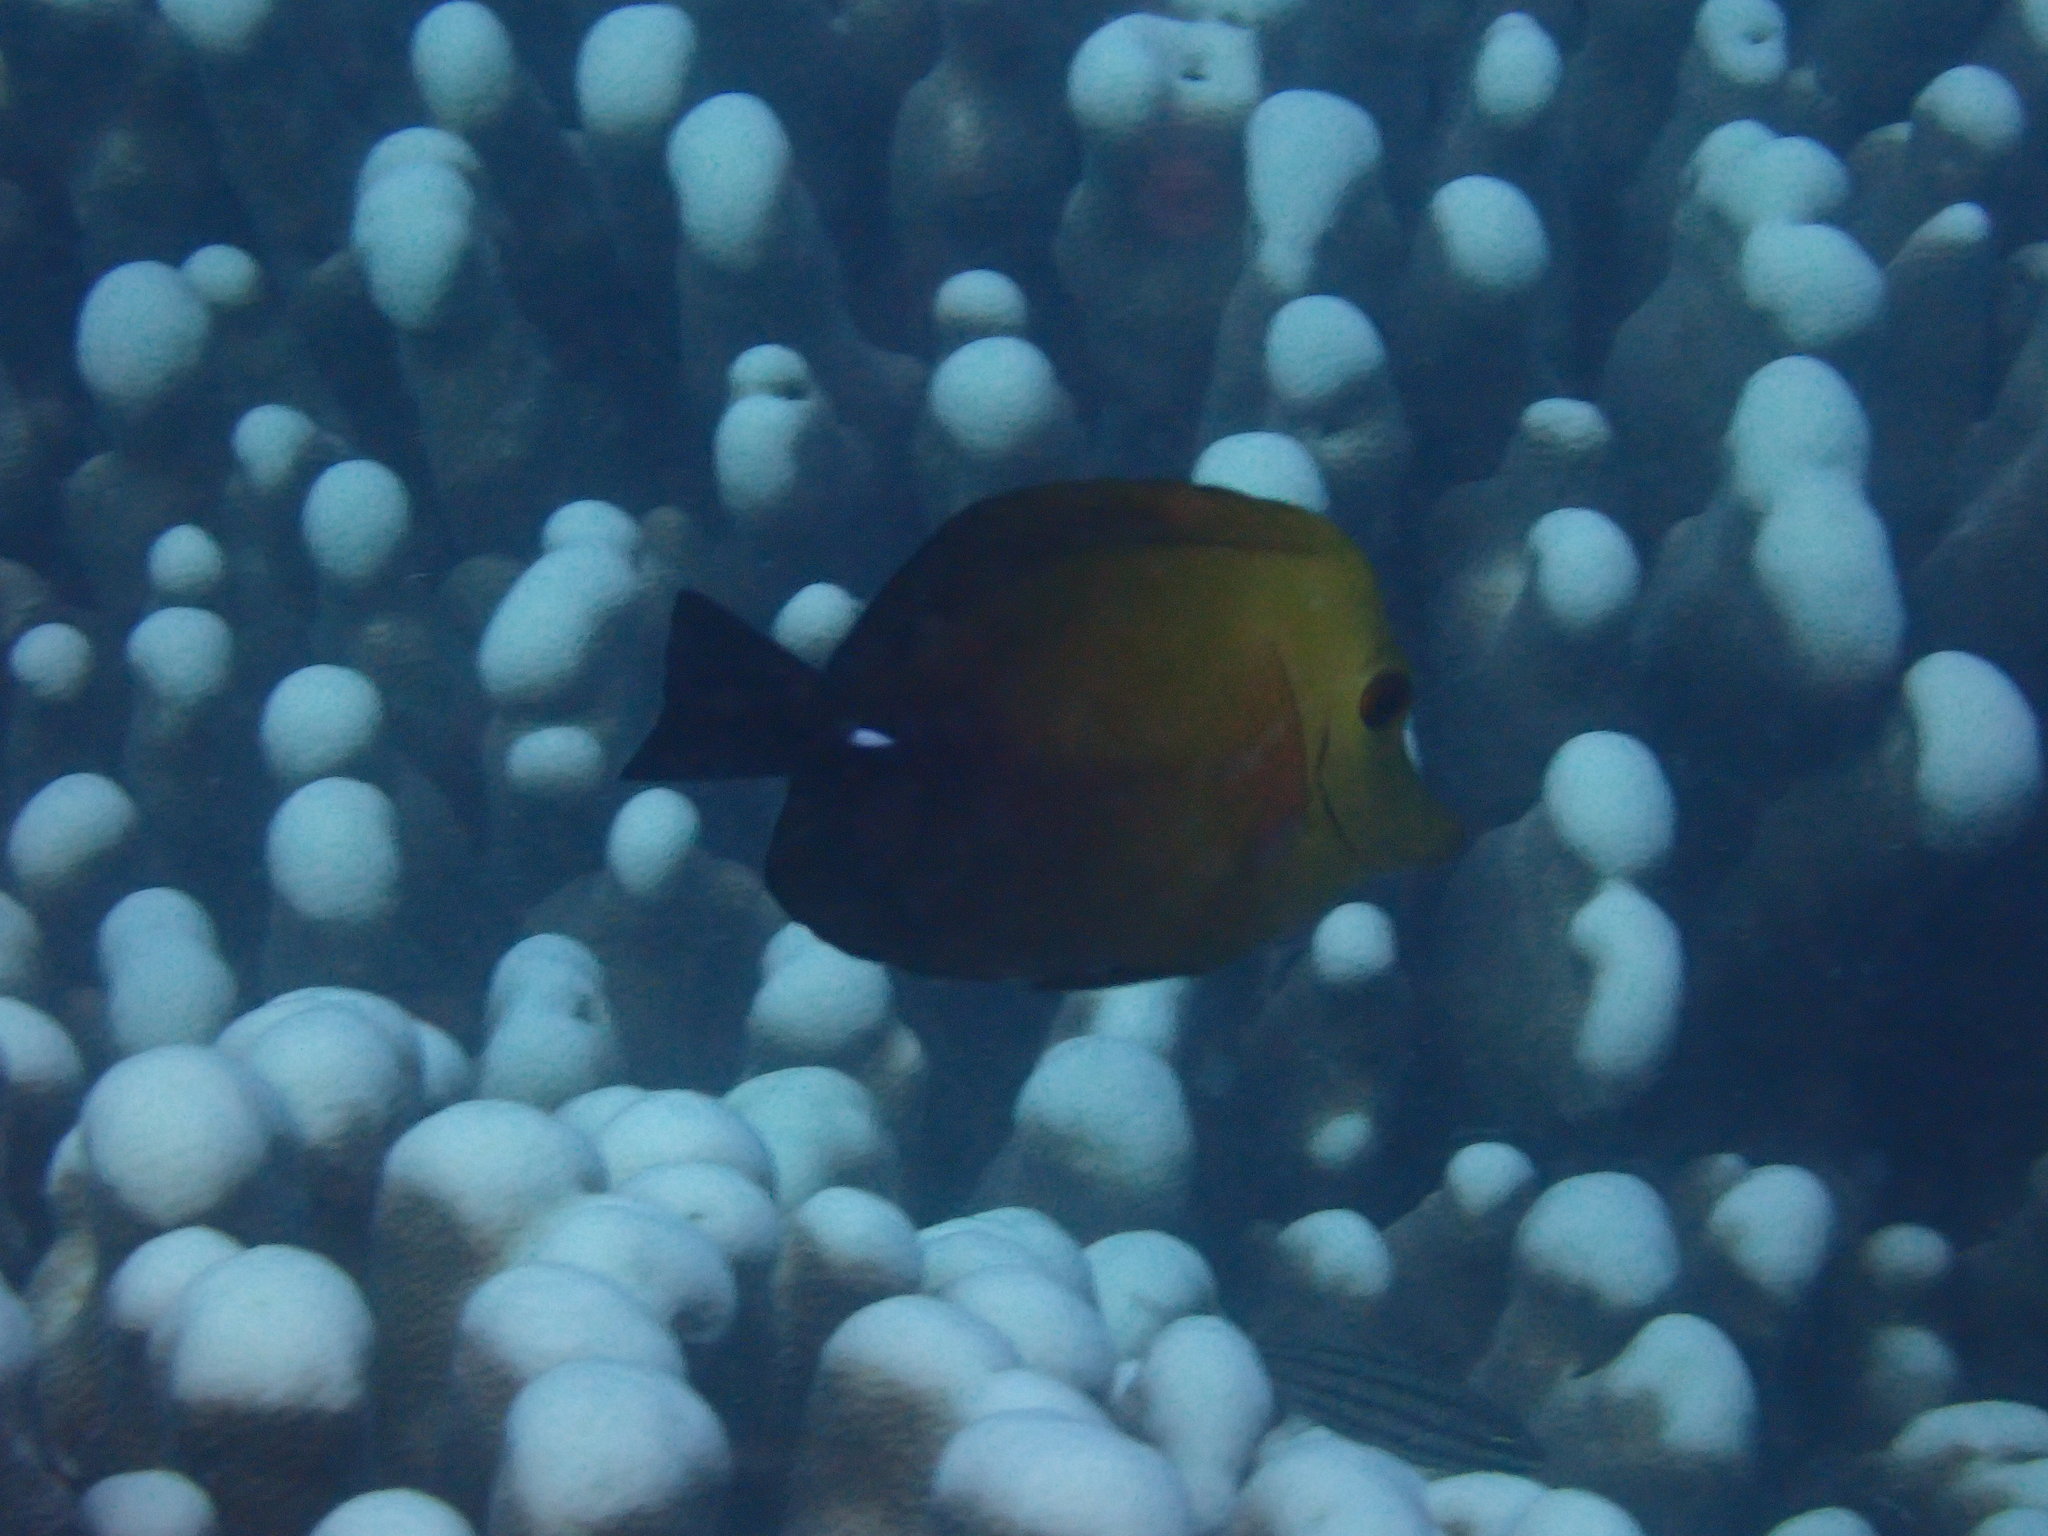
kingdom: Animalia
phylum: Chordata
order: Perciformes
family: Acanthuridae
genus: Zebrasoma
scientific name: Zebrasoma scopas
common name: Twotone tang
